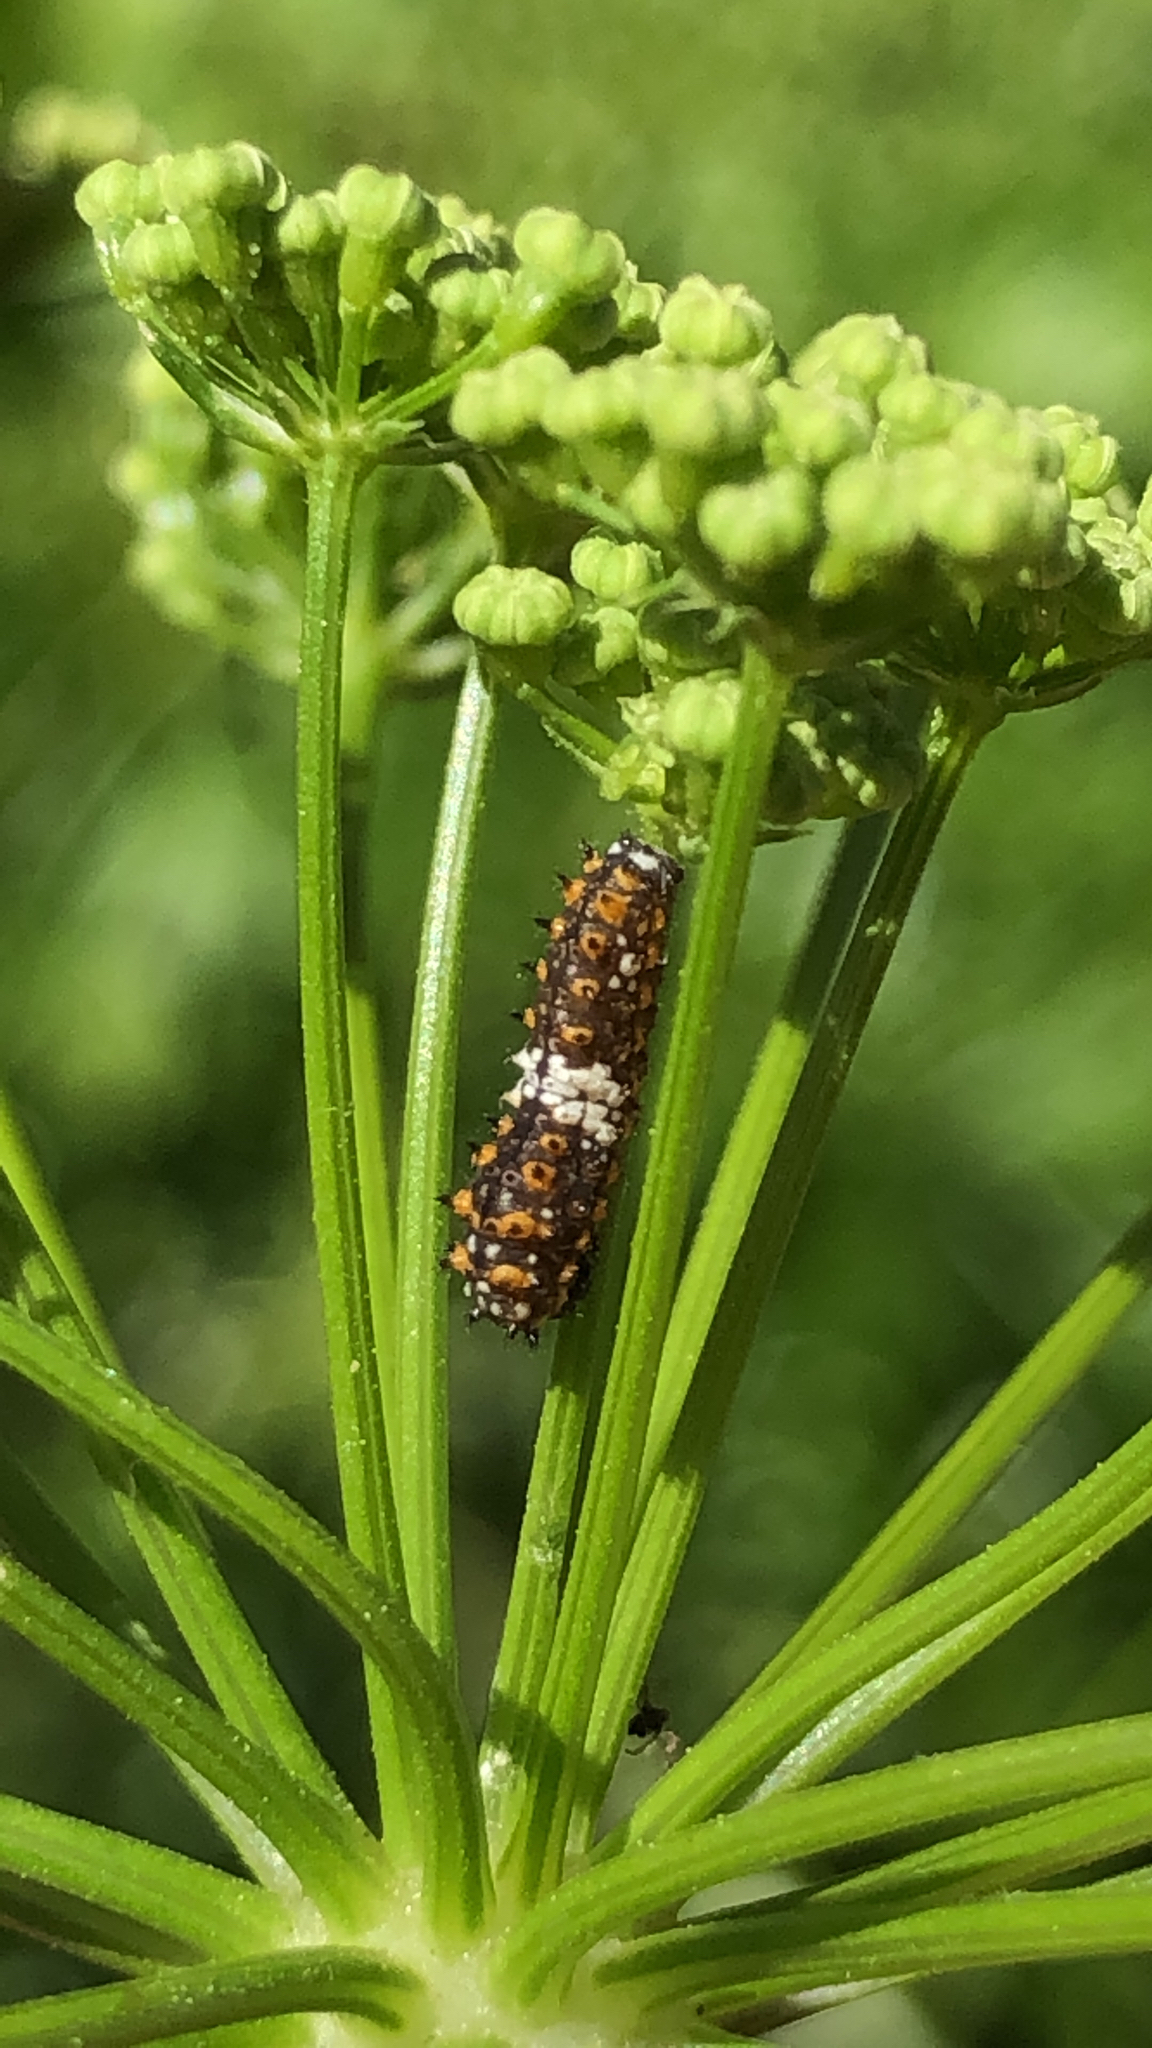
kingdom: Animalia
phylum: Arthropoda
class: Insecta
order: Lepidoptera
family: Papilionidae
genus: Papilio
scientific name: Papilio polyxenes
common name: Black swallowtail
